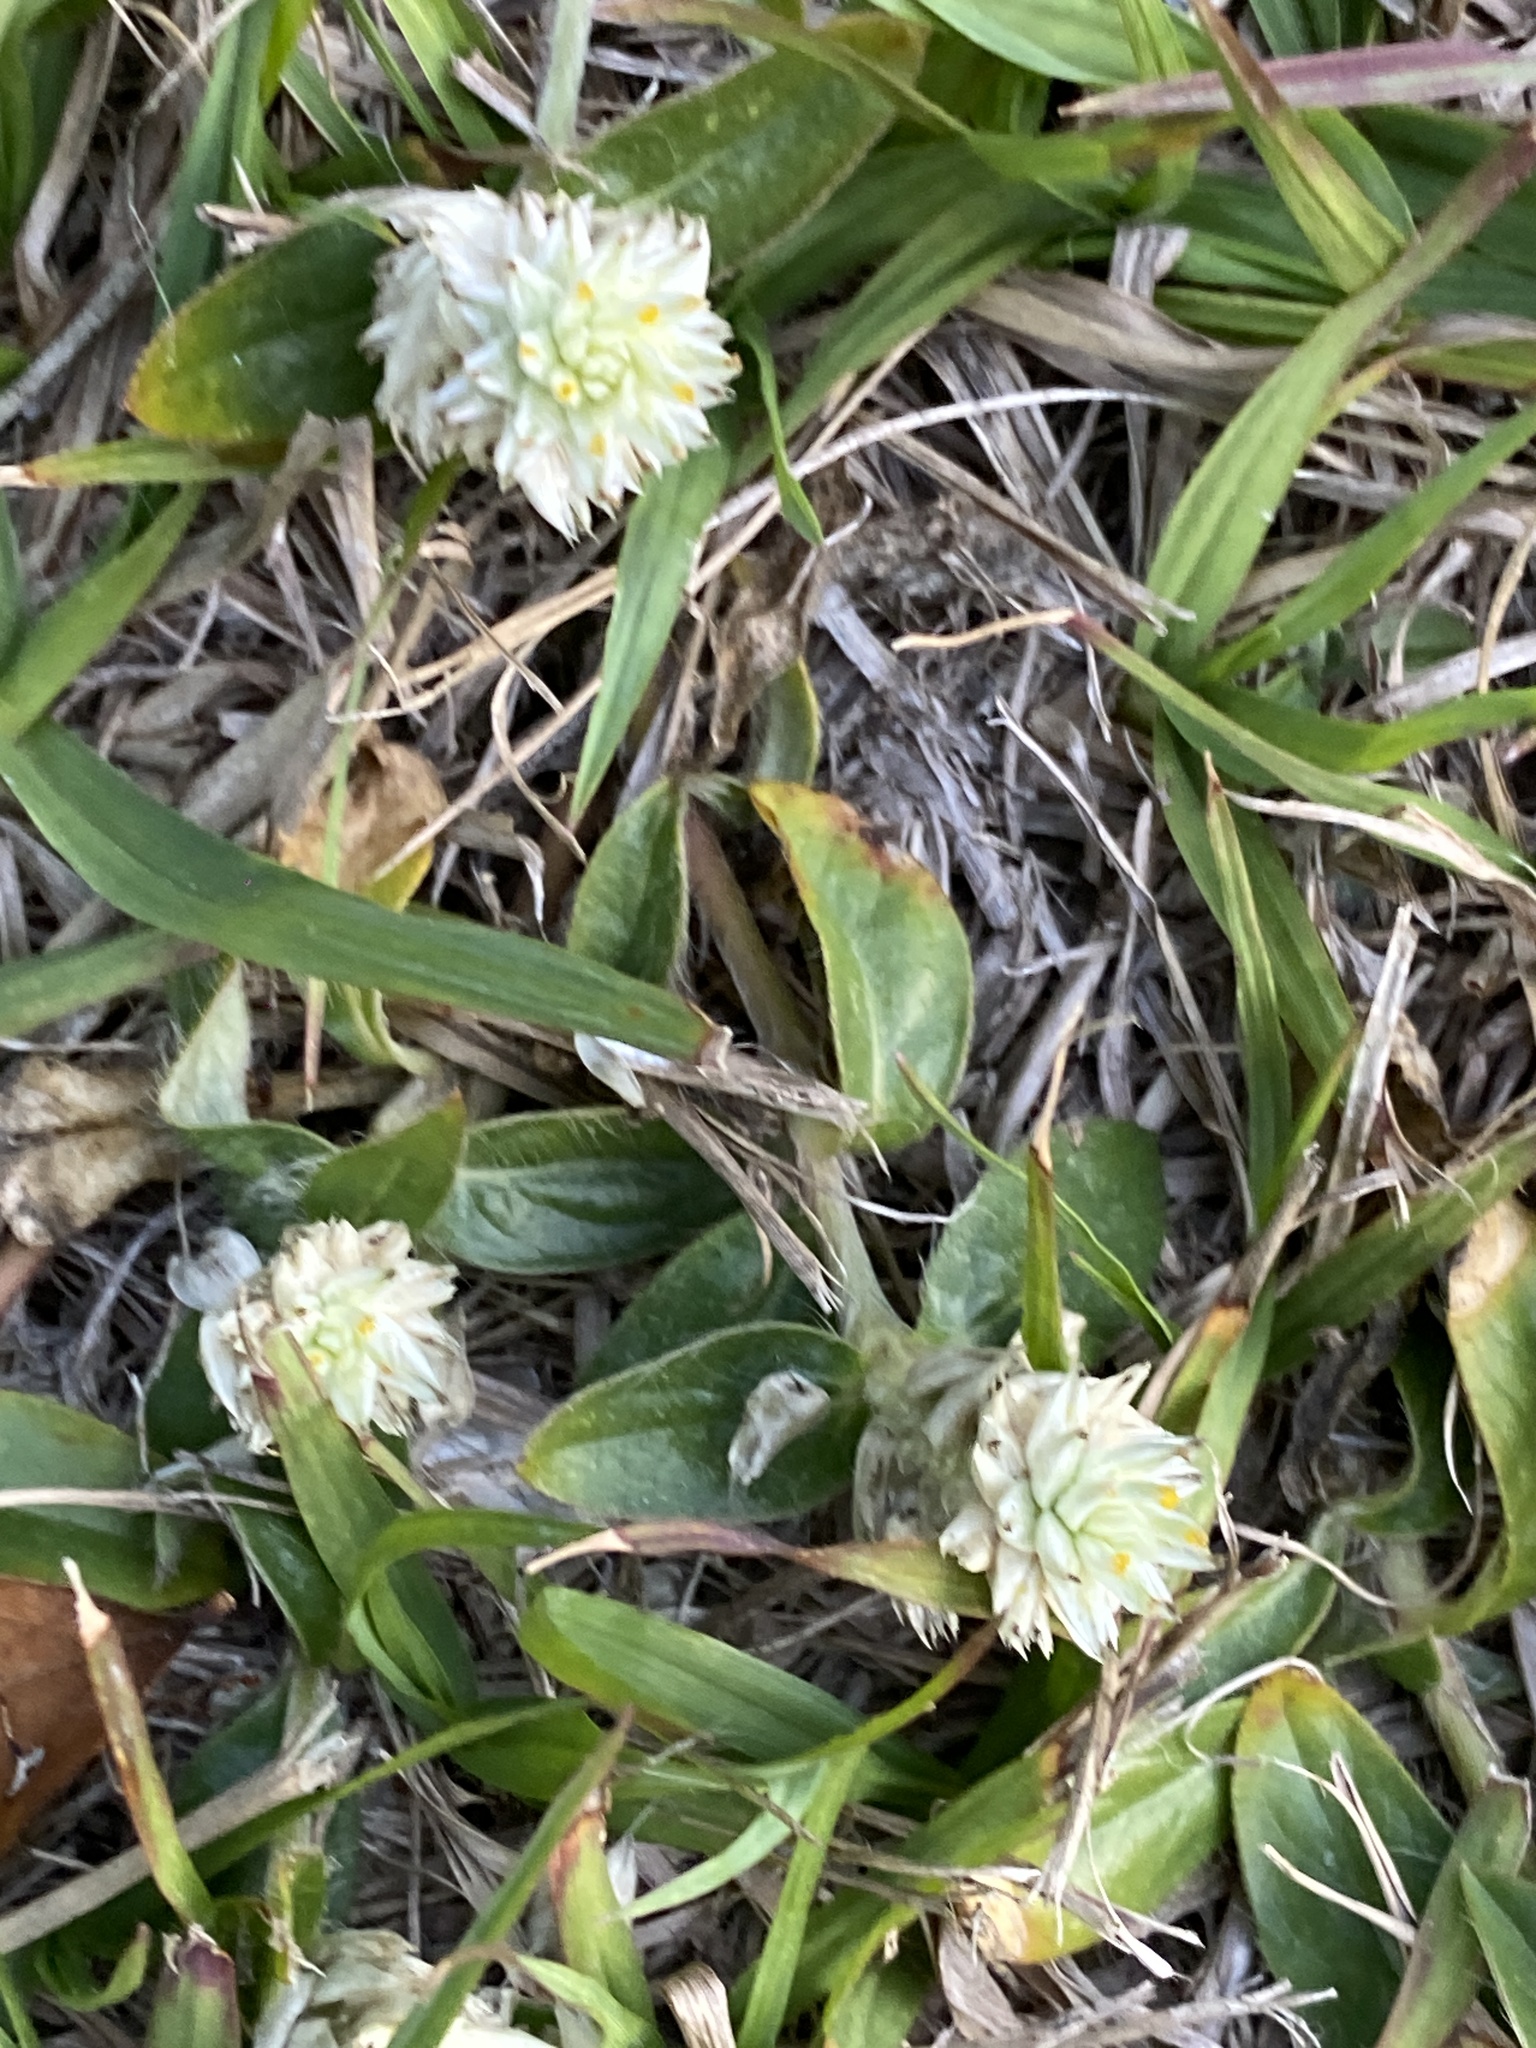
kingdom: Plantae
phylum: Tracheophyta
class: Magnoliopsida
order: Caryophyllales
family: Amaranthaceae
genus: Gomphrena
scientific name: Gomphrena celosioides
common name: Gomphrena-weed
